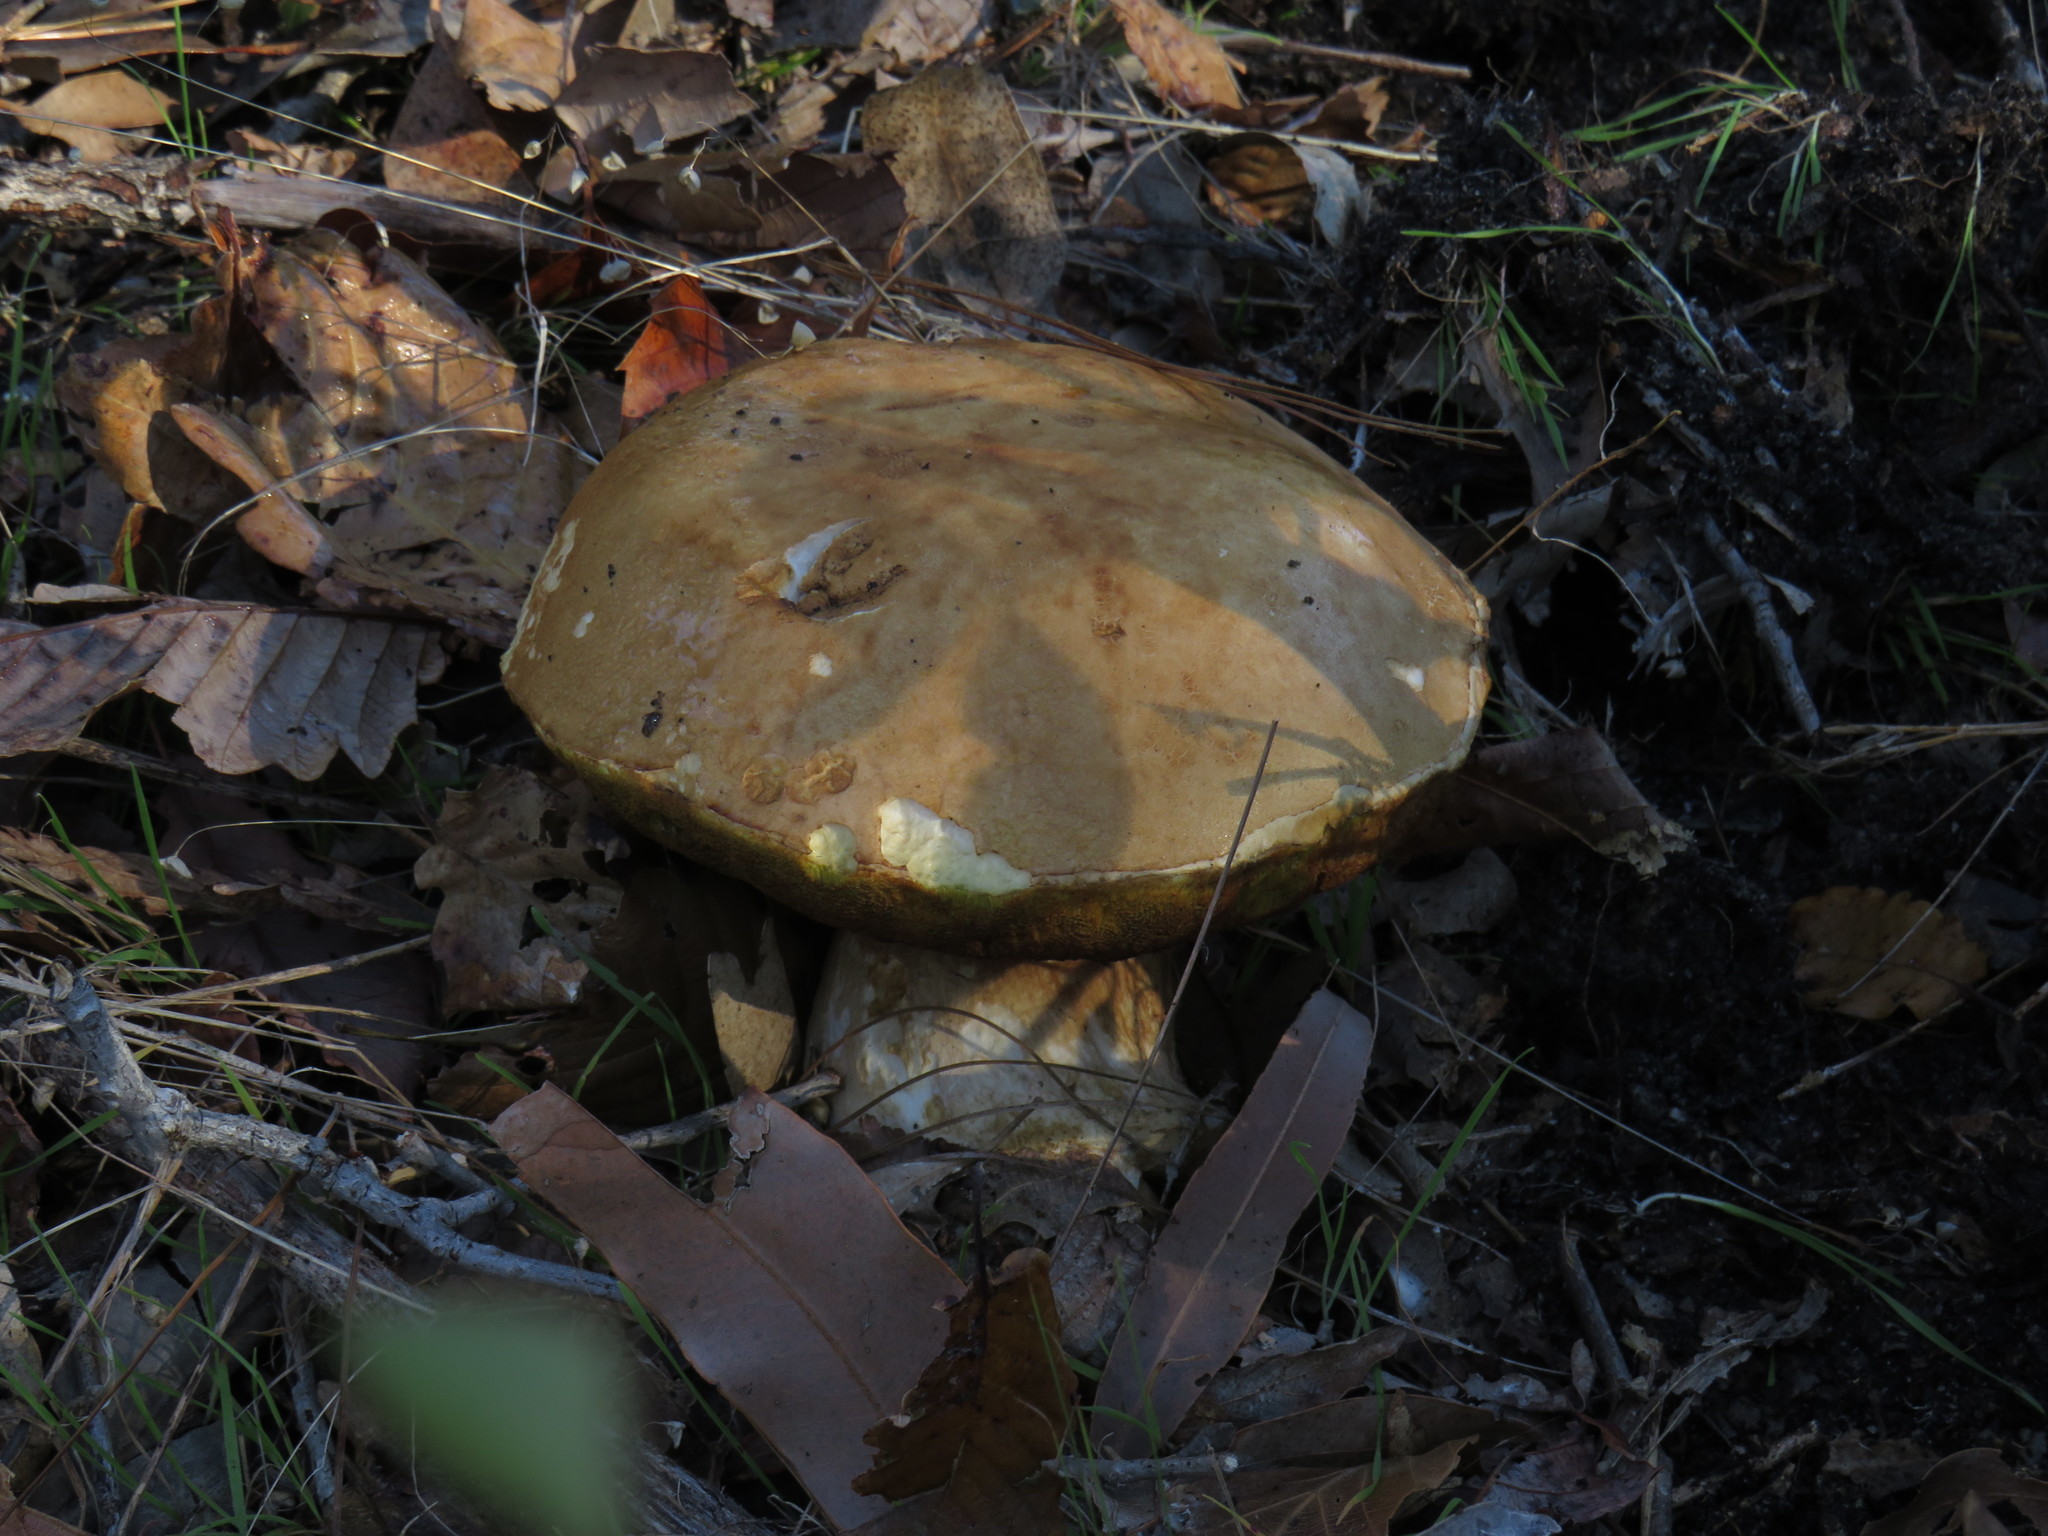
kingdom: Fungi
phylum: Basidiomycota
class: Agaricomycetes
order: Boletales
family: Boletaceae
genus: Boletus
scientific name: Boletus edulis
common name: Cep
